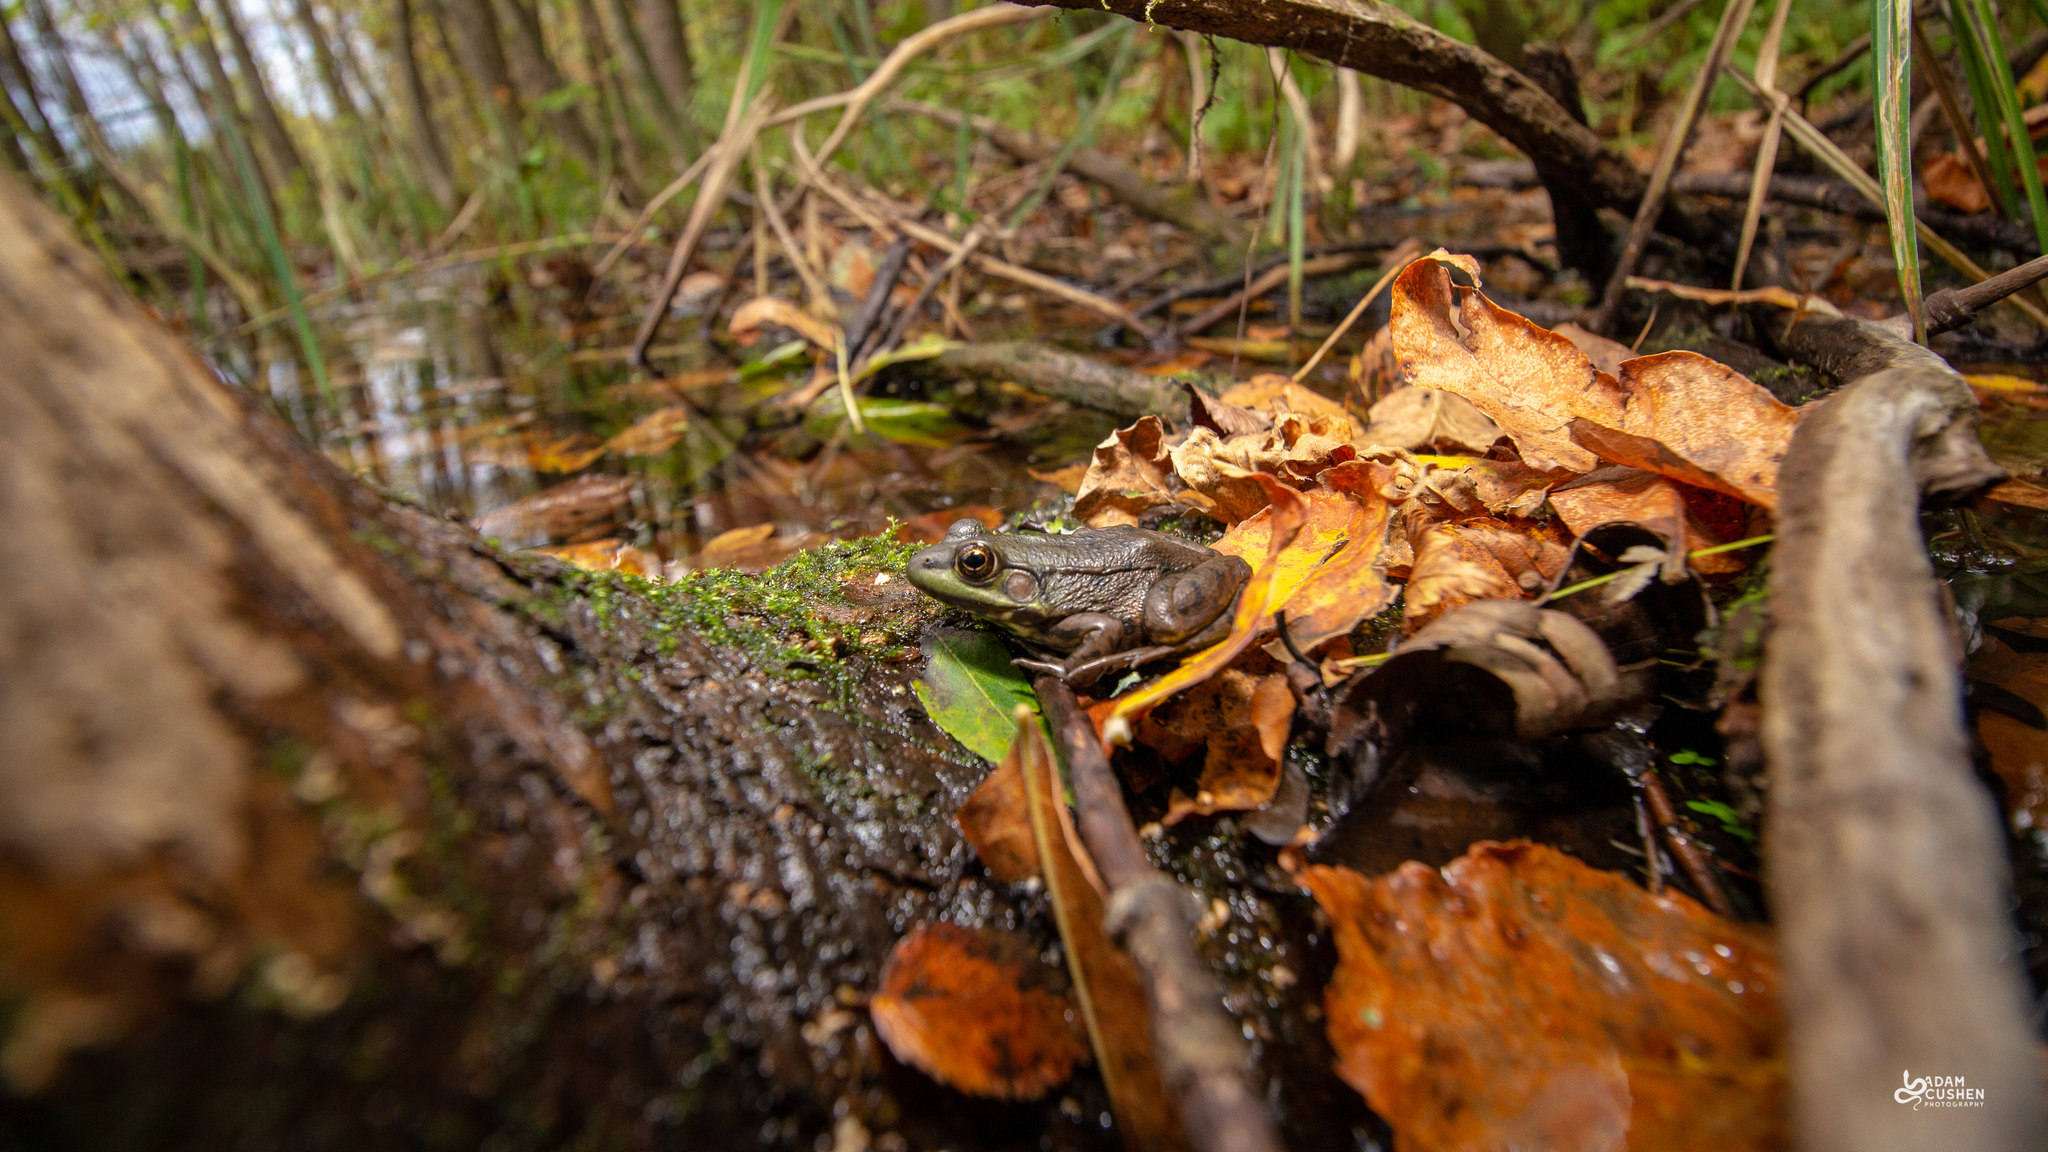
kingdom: Animalia
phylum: Chordata
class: Amphibia
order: Anura
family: Ranidae
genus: Lithobates
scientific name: Lithobates clamitans
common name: Green frog
